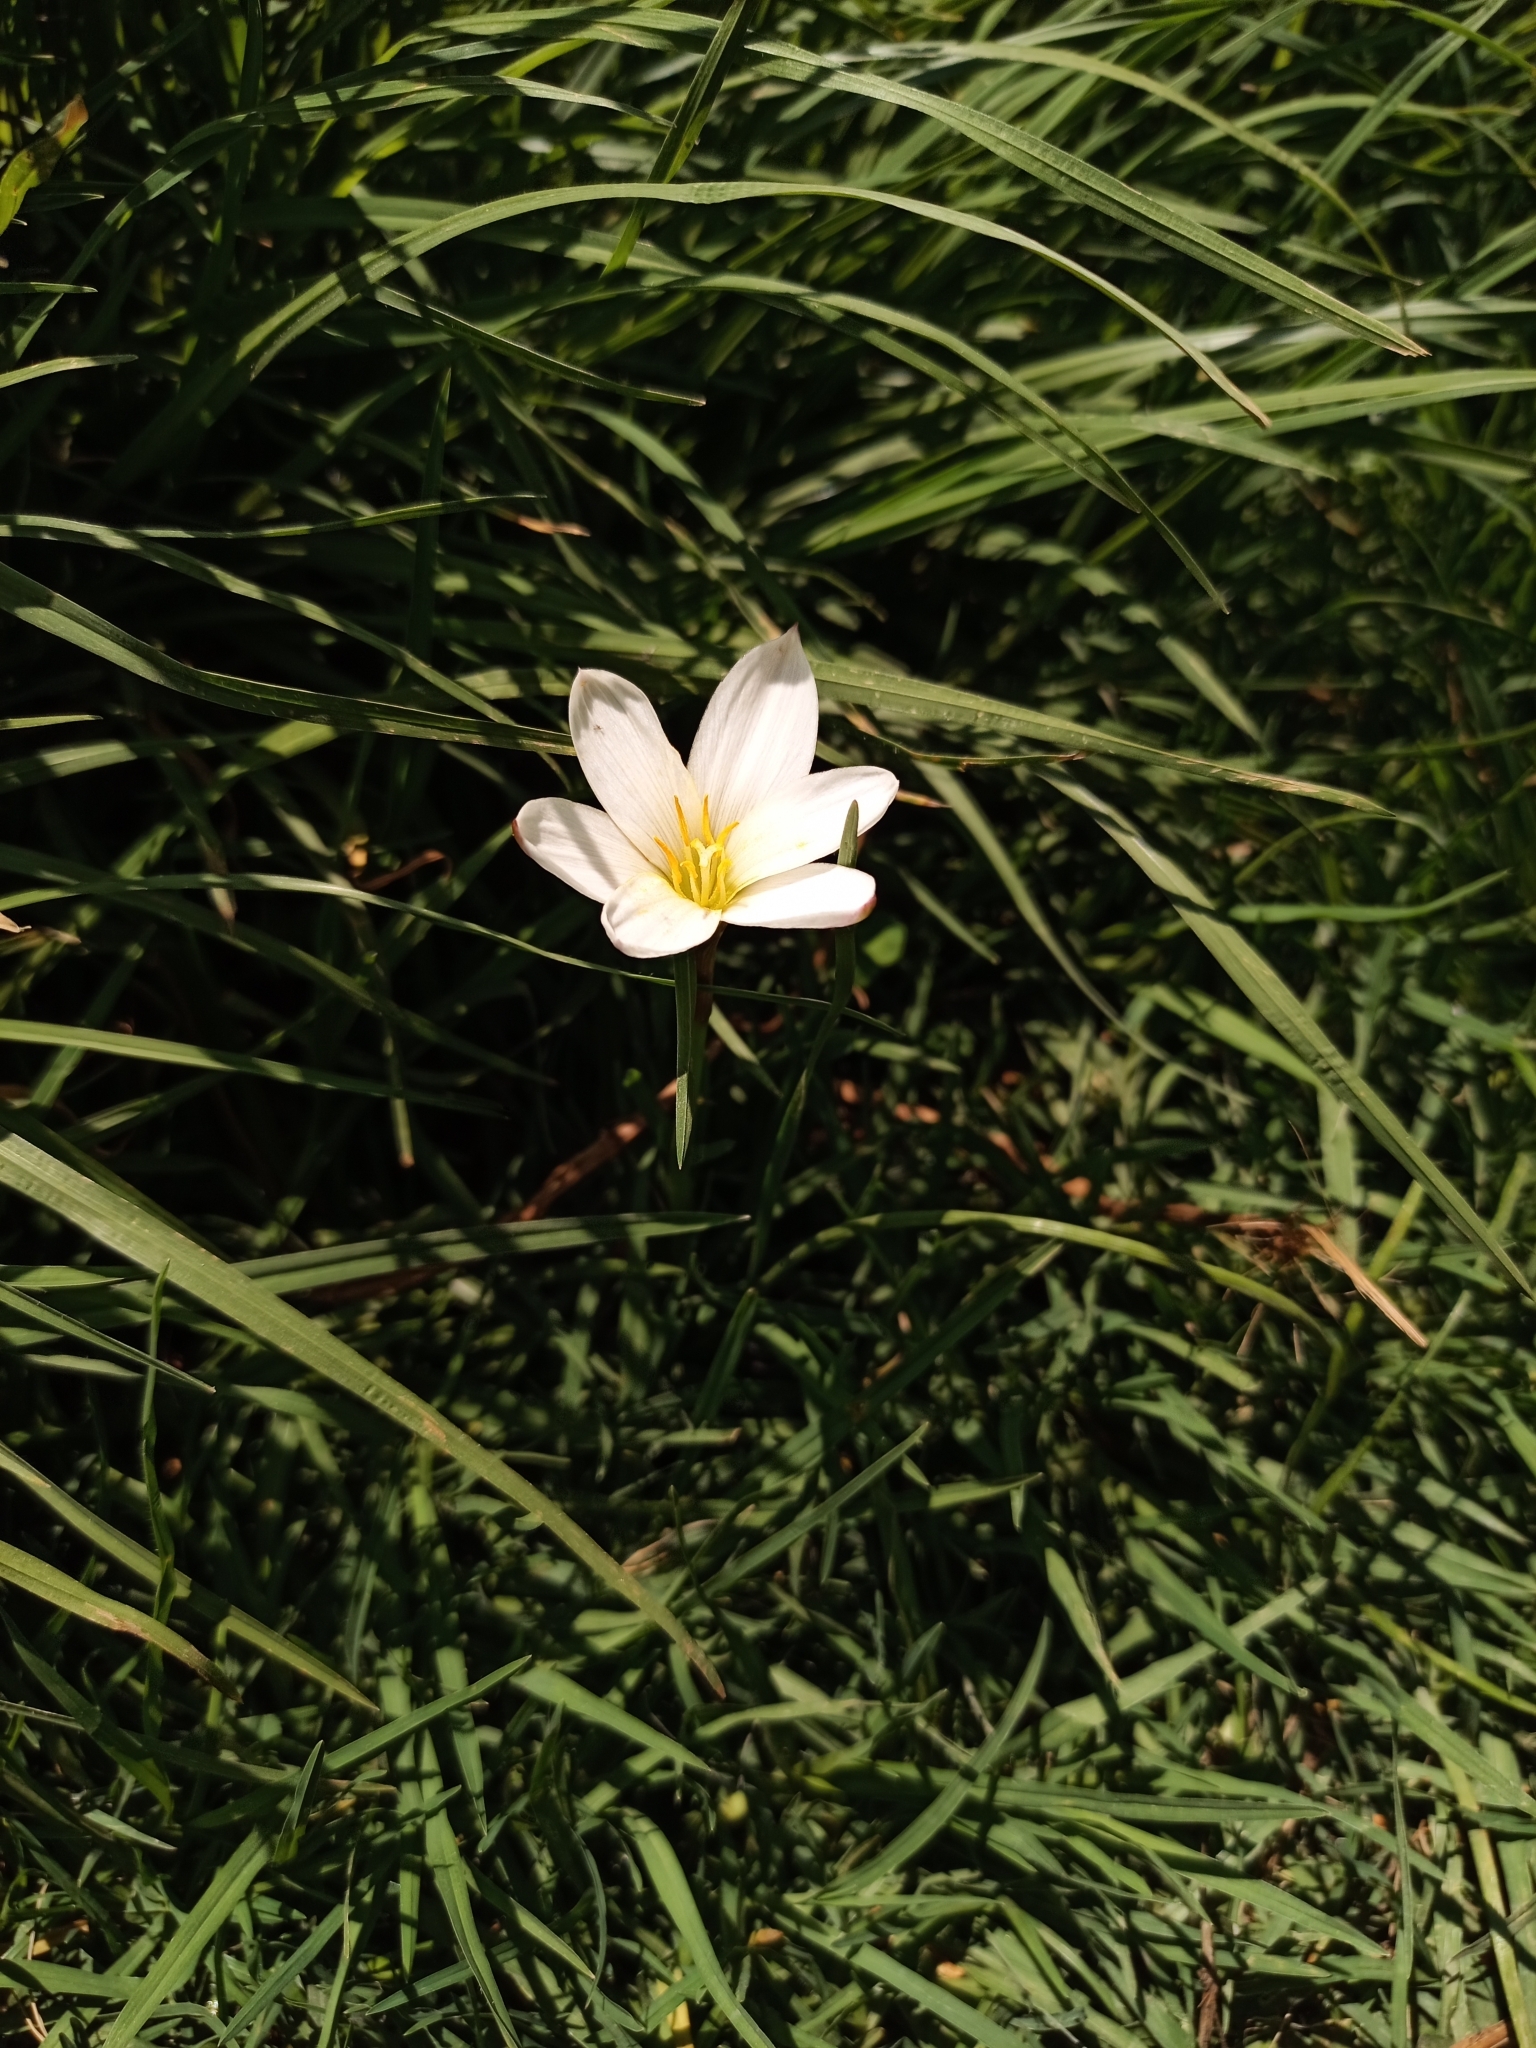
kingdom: Plantae
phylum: Tracheophyta
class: Liliopsida
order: Asparagales
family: Amaryllidaceae
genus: Zephyranthes
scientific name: Zephyranthes fosteri
